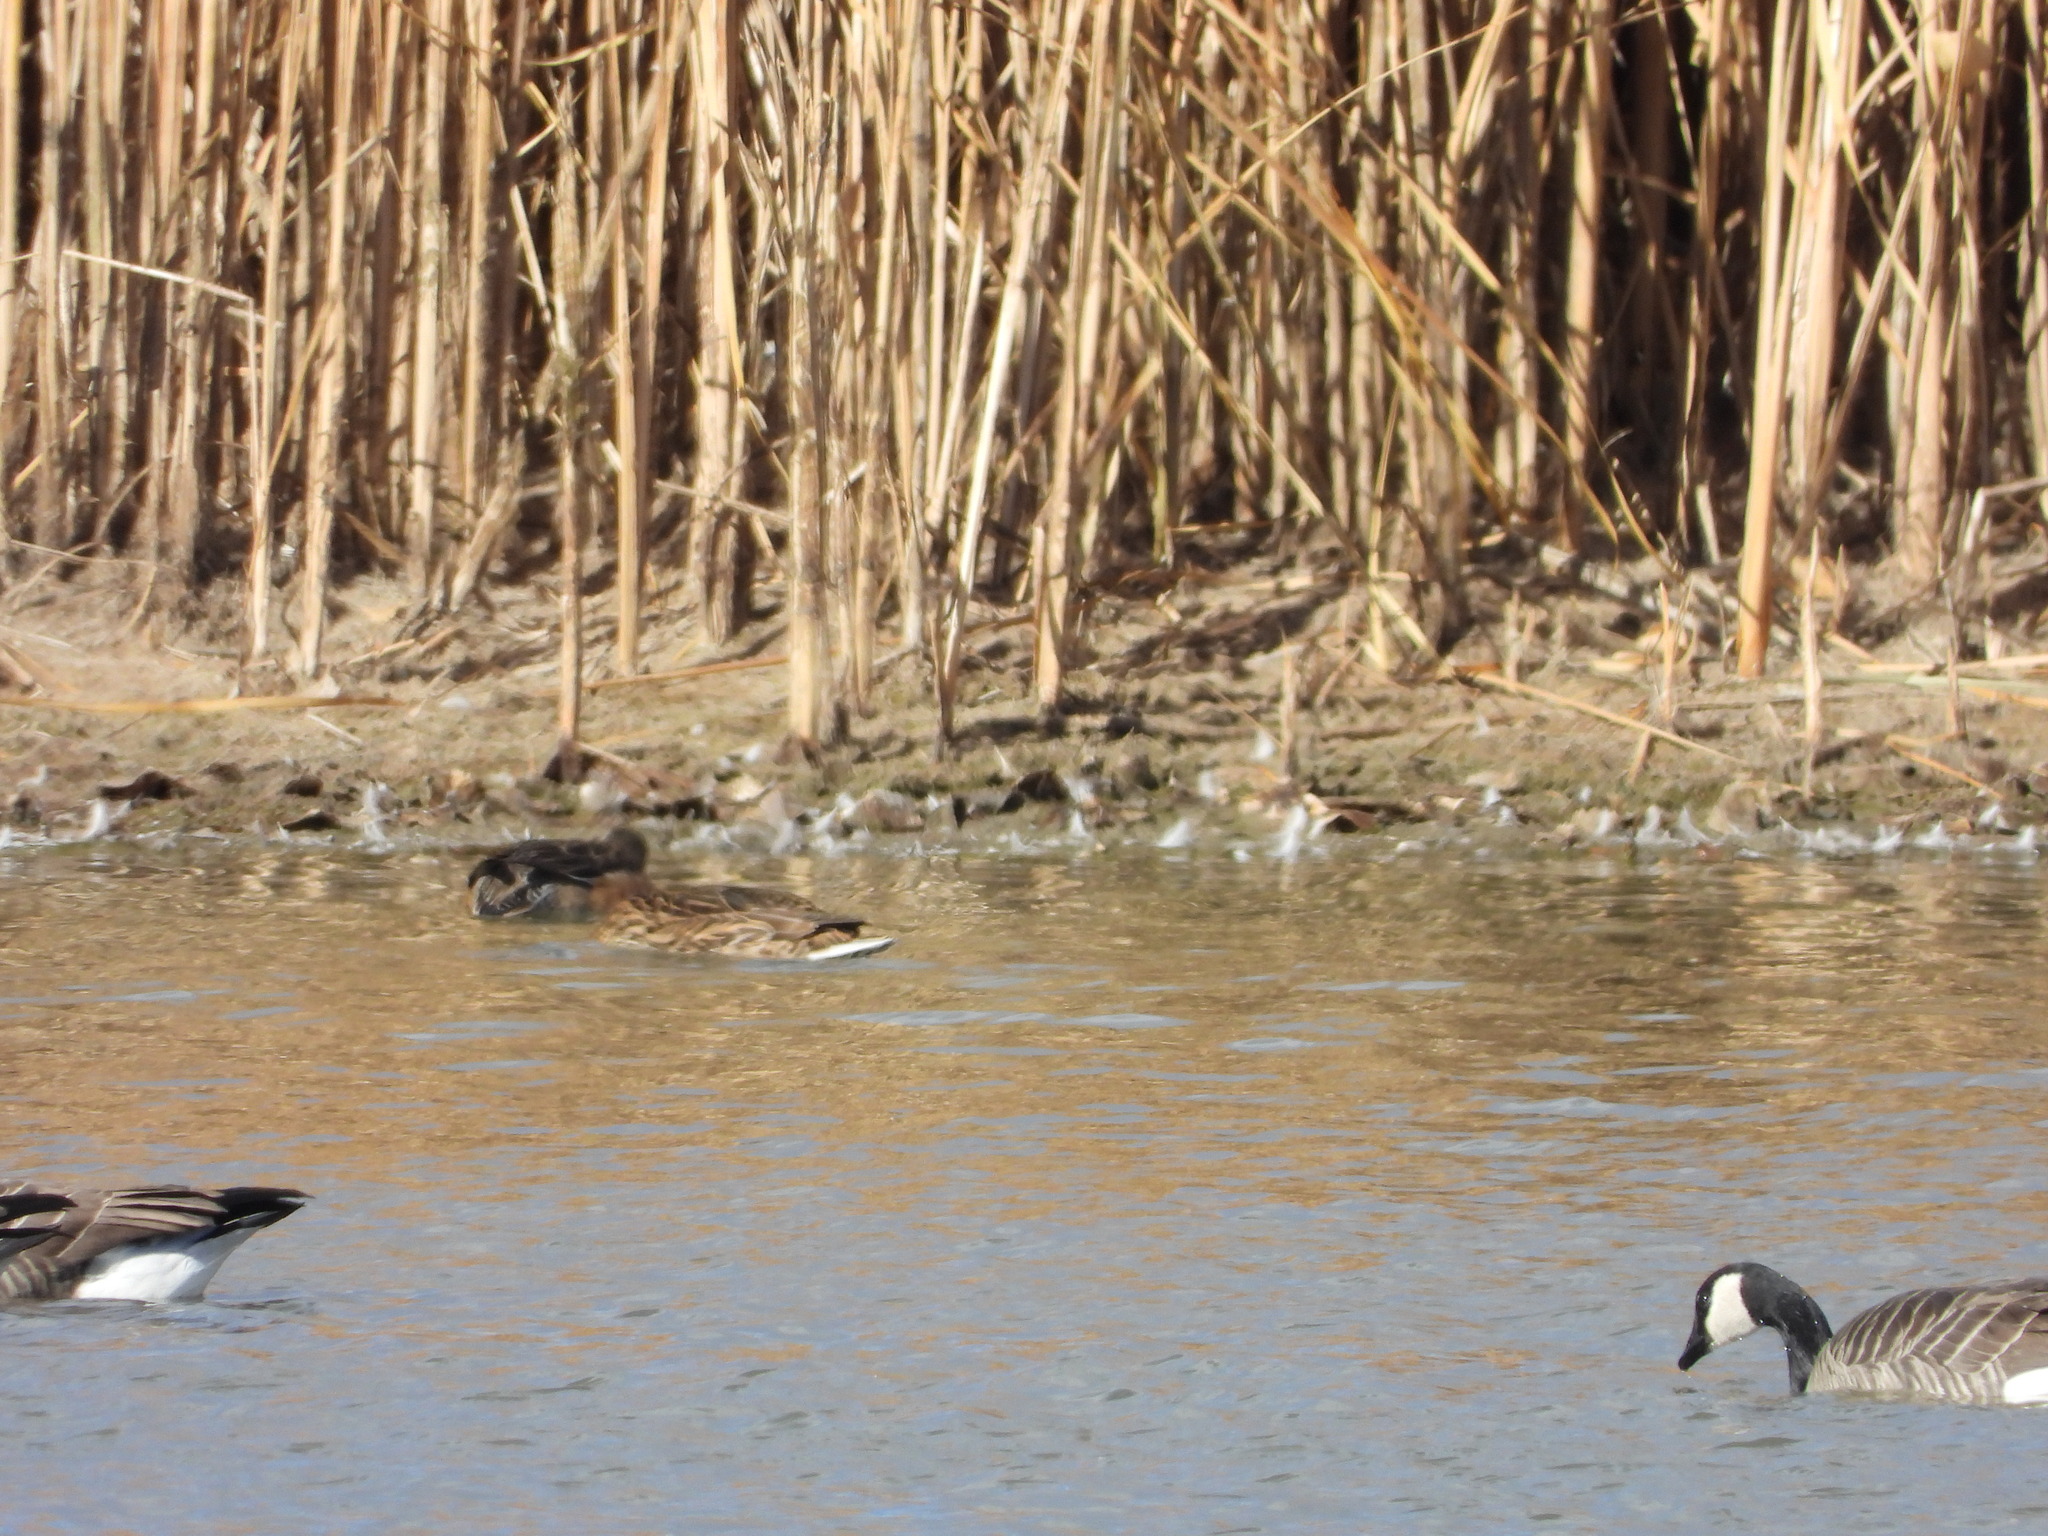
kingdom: Animalia
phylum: Chordata
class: Aves
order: Anseriformes
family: Anatidae
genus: Anas
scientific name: Anas platyrhynchos
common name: Mallard
